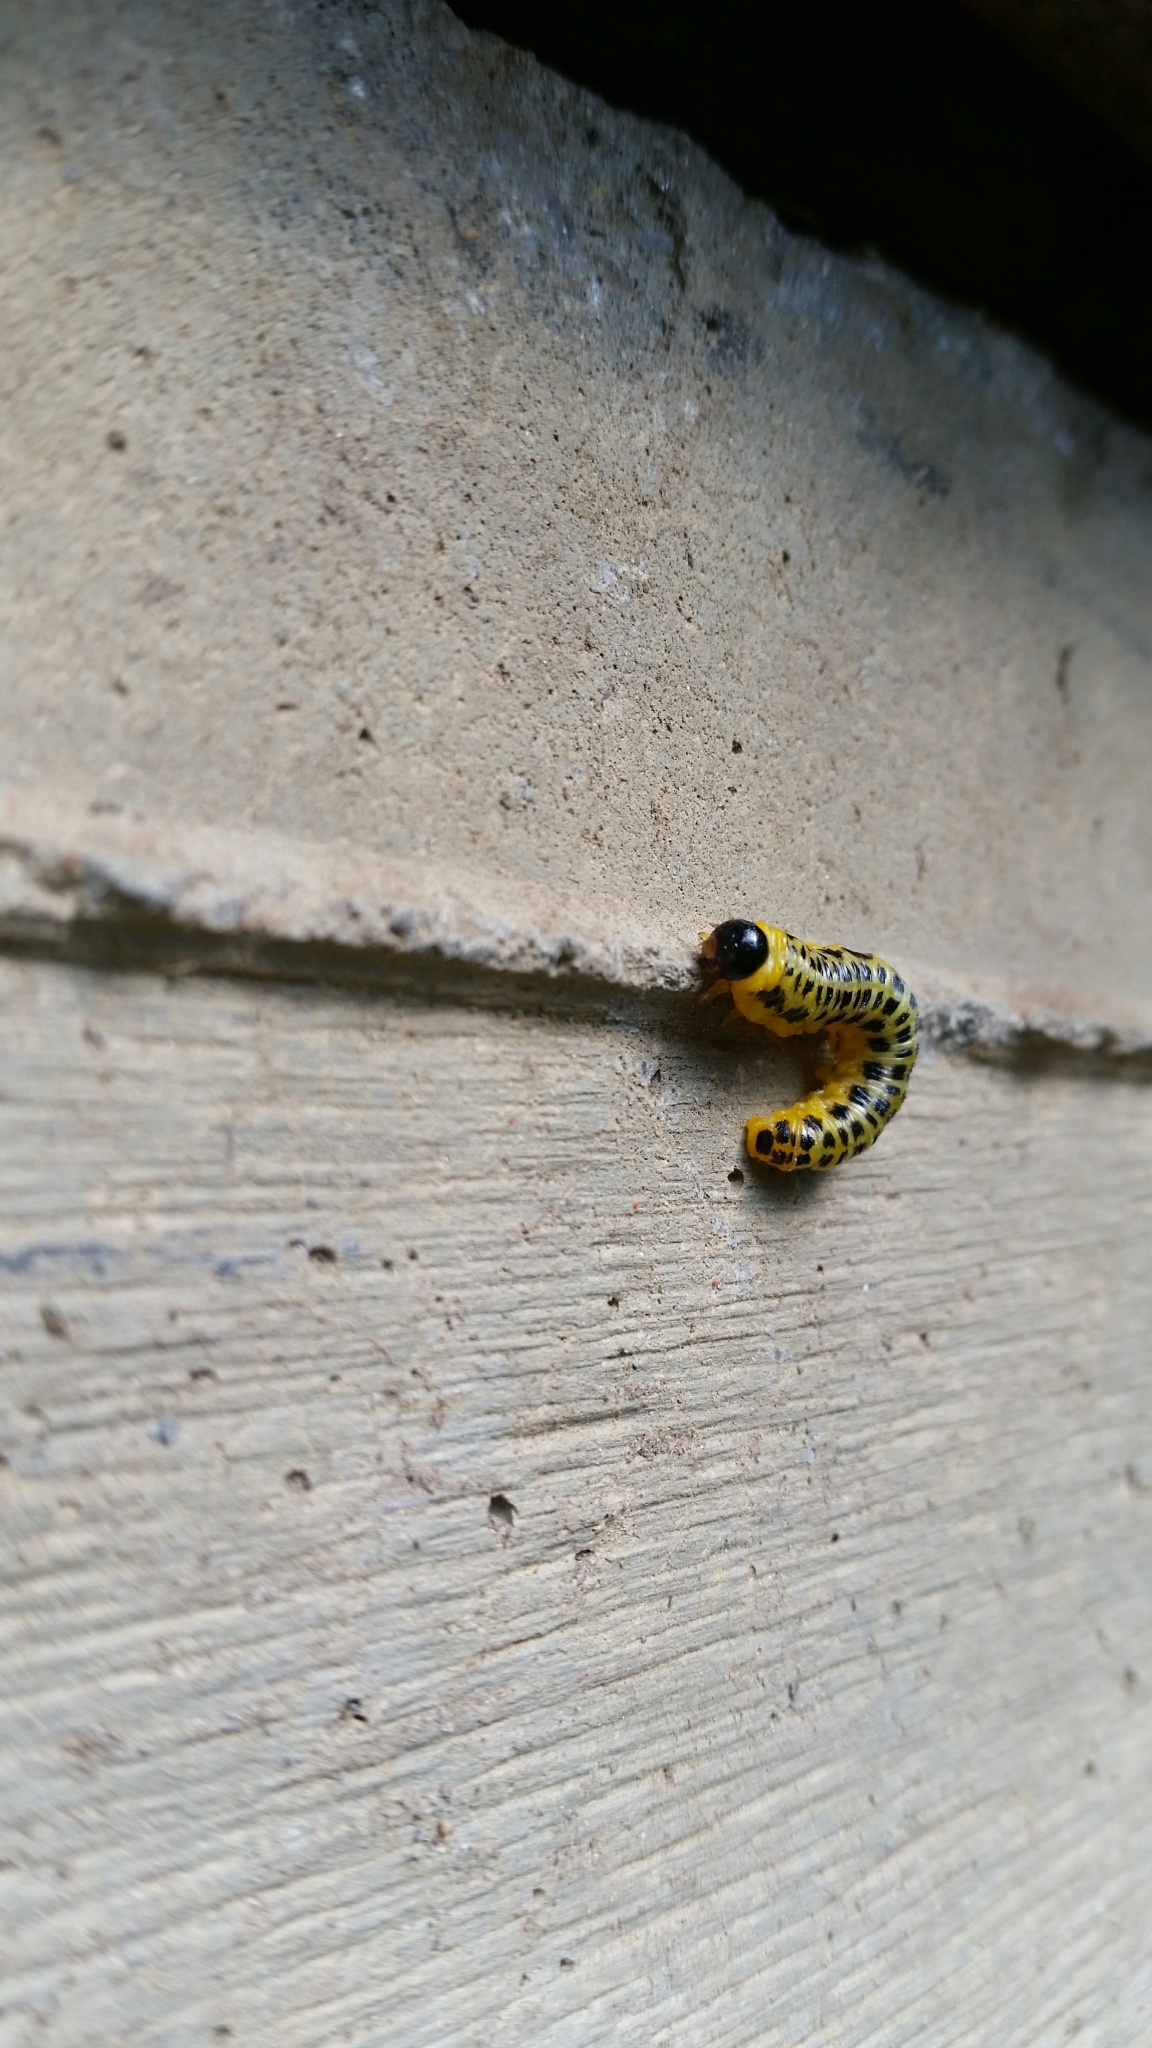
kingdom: Animalia
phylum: Arthropoda
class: Insecta
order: Hymenoptera
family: Tenthredinidae
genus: Macremphytus
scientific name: Macremphytus testaceus
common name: Dogwood sawfly
